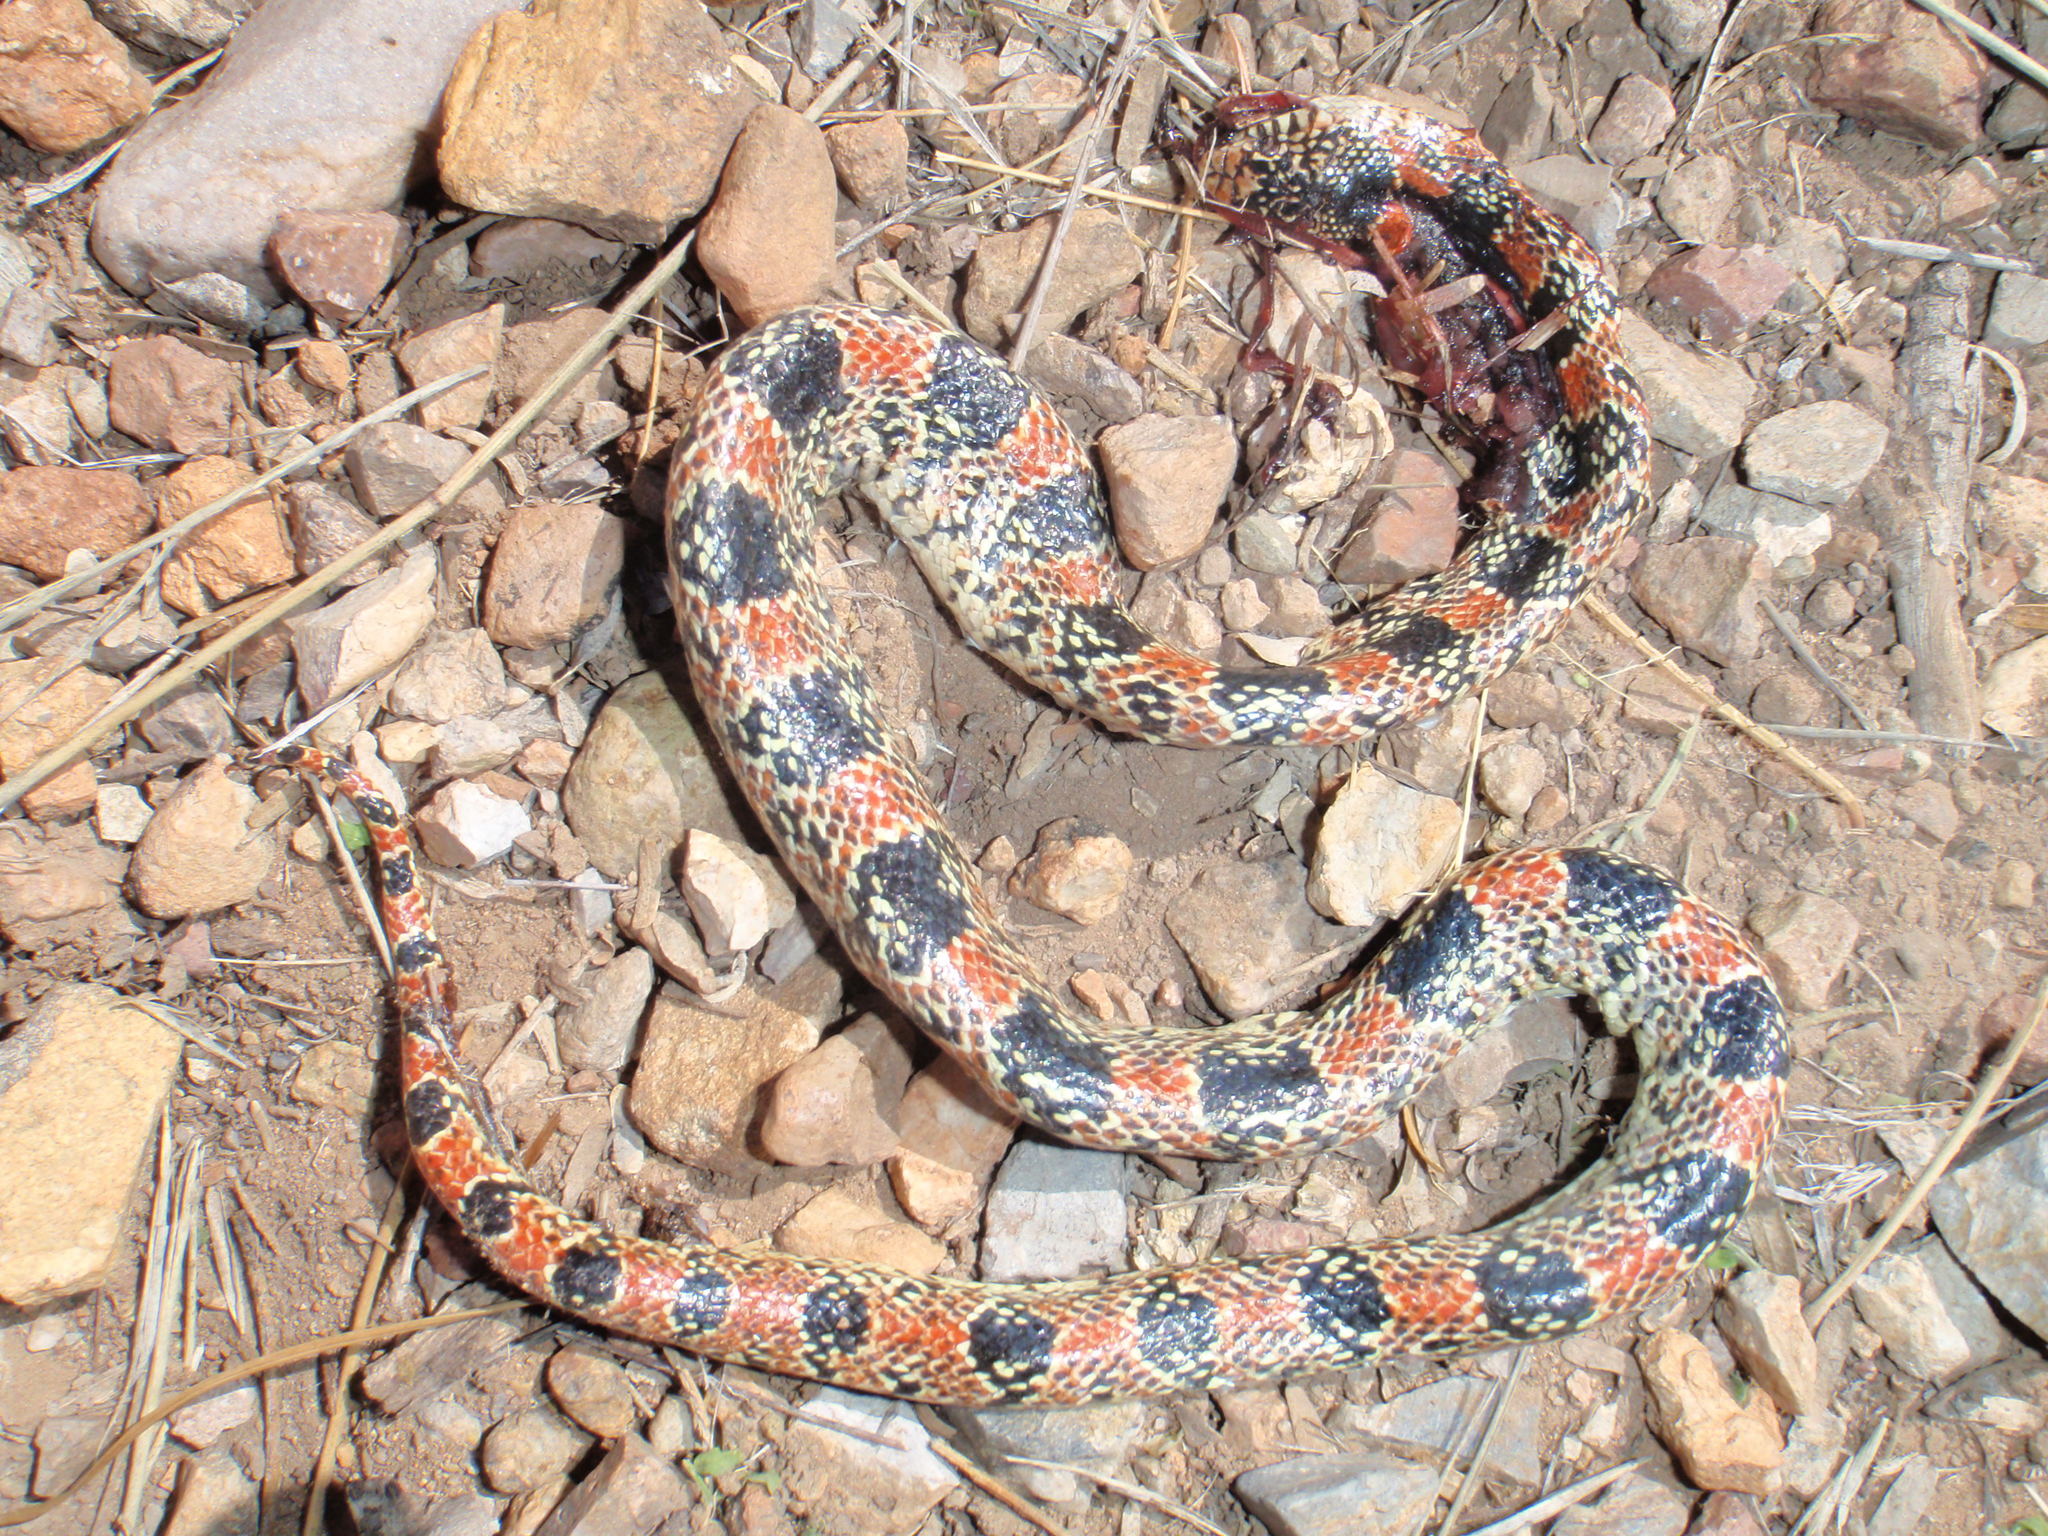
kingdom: Animalia
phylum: Chordata
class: Squamata
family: Colubridae
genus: Rhinocheilus
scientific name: Rhinocheilus lecontei
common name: Longnose snake
